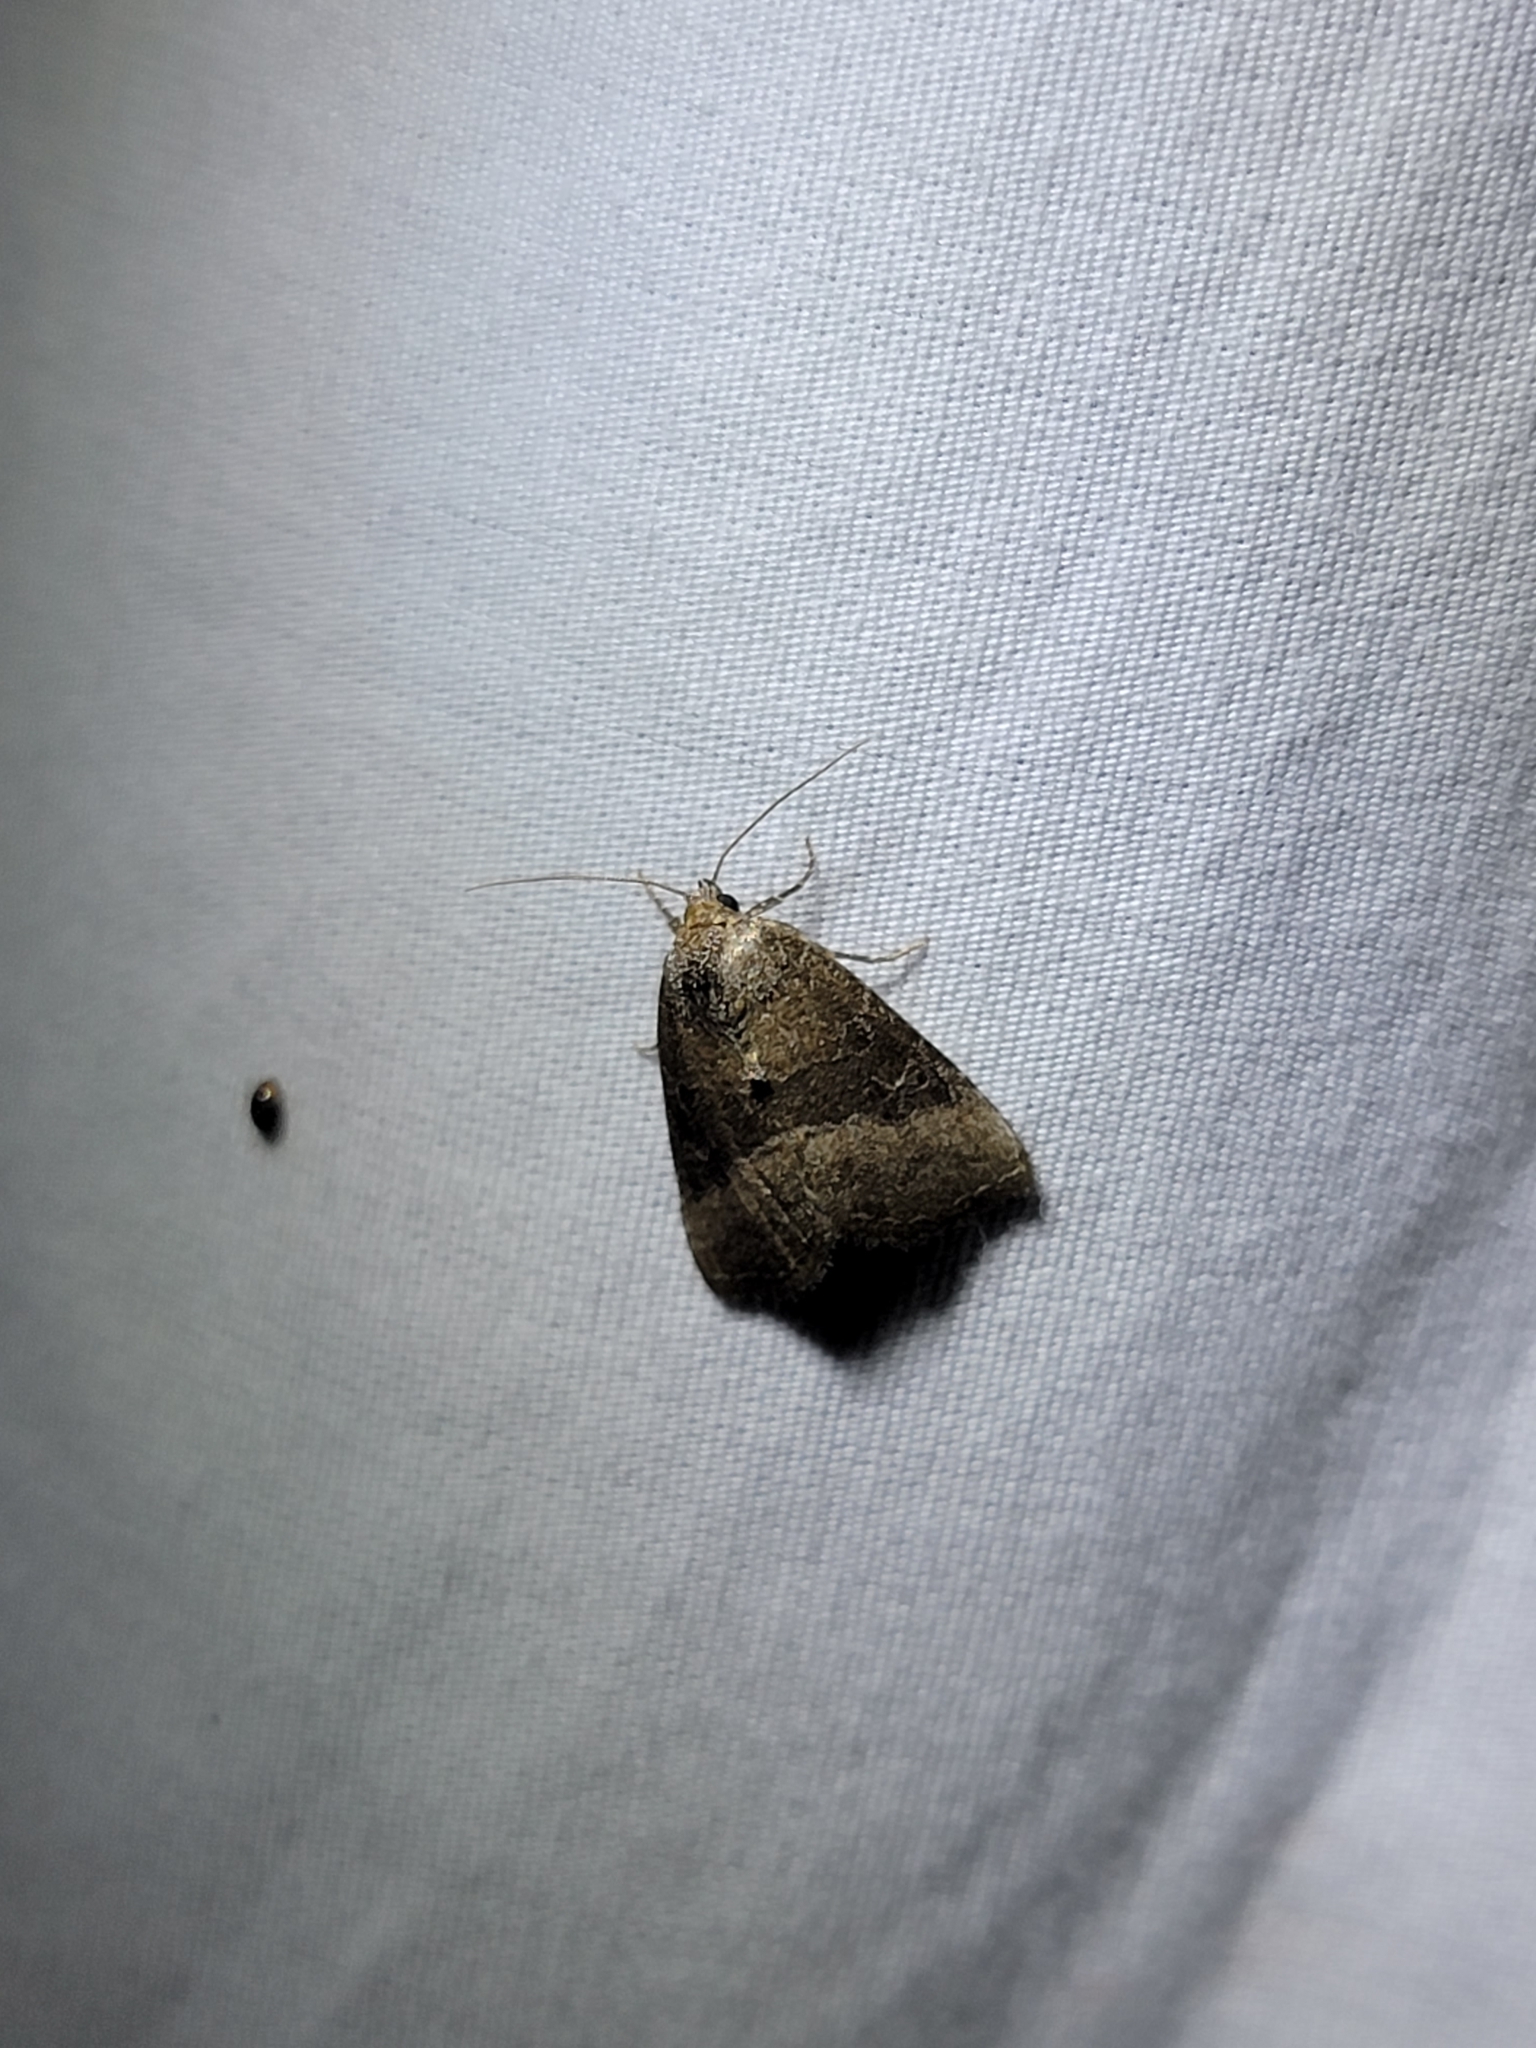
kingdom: Animalia
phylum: Arthropoda
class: Insecta
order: Lepidoptera
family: Noctuidae
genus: Ogdoconta
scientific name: Ogdoconta cinereola
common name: Common pinkband
